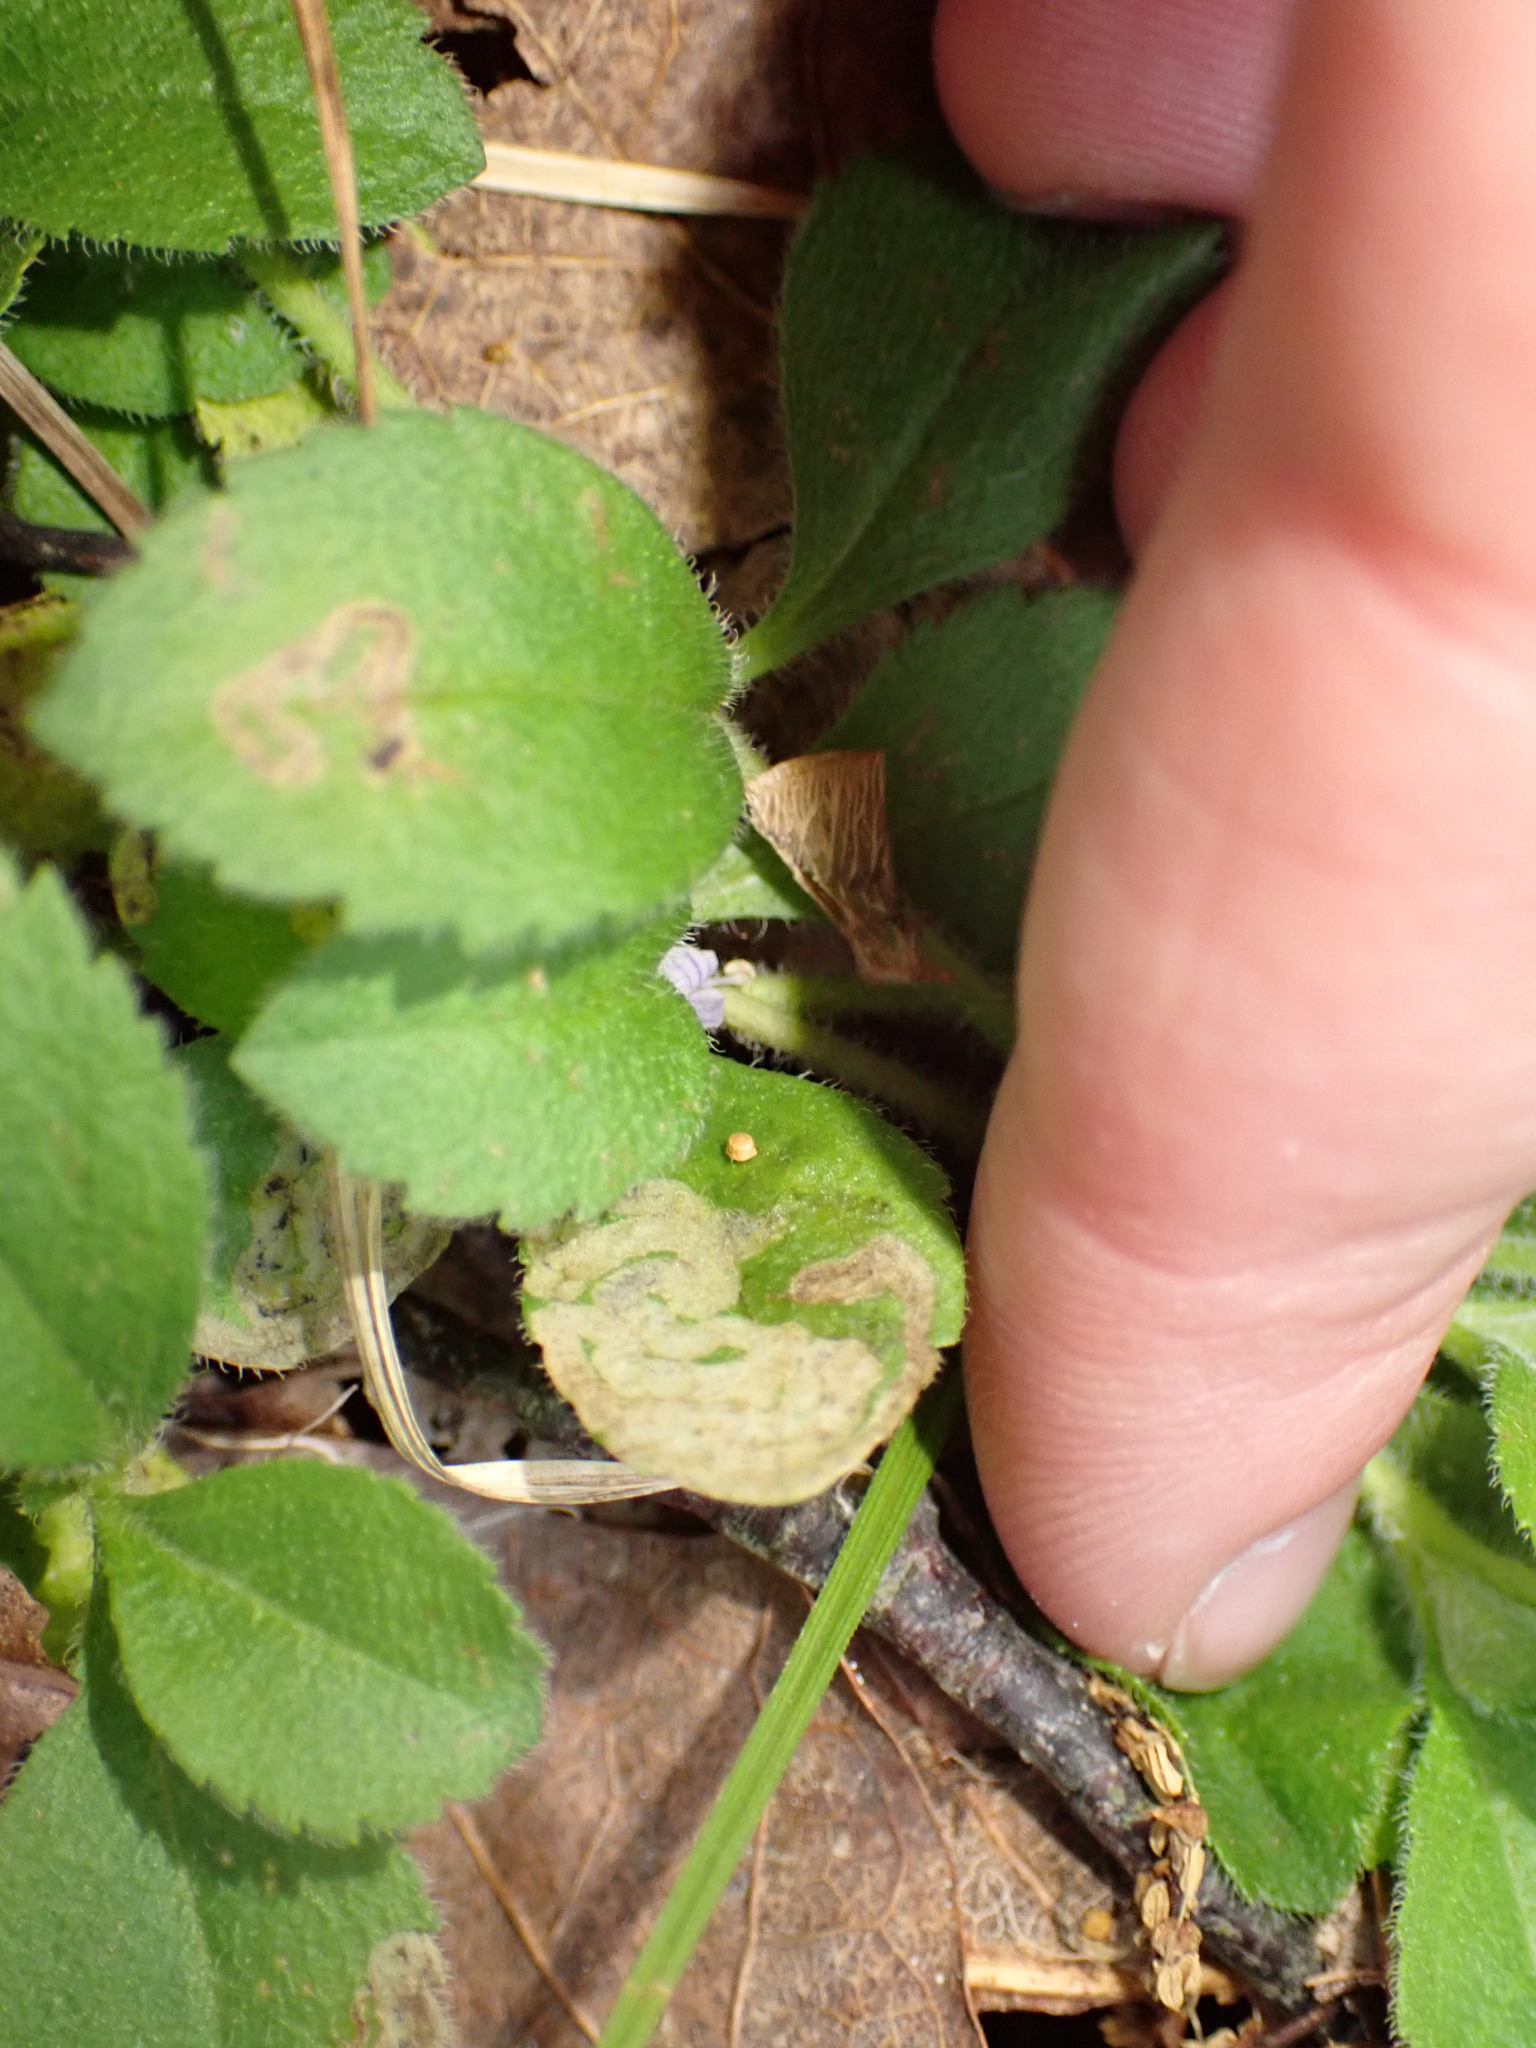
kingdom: Animalia
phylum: Arthropoda
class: Insecta
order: Diptera
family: Agromyzidae
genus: Phytomyza
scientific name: Phytomyza crassiseta
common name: Leaf-miner fly
